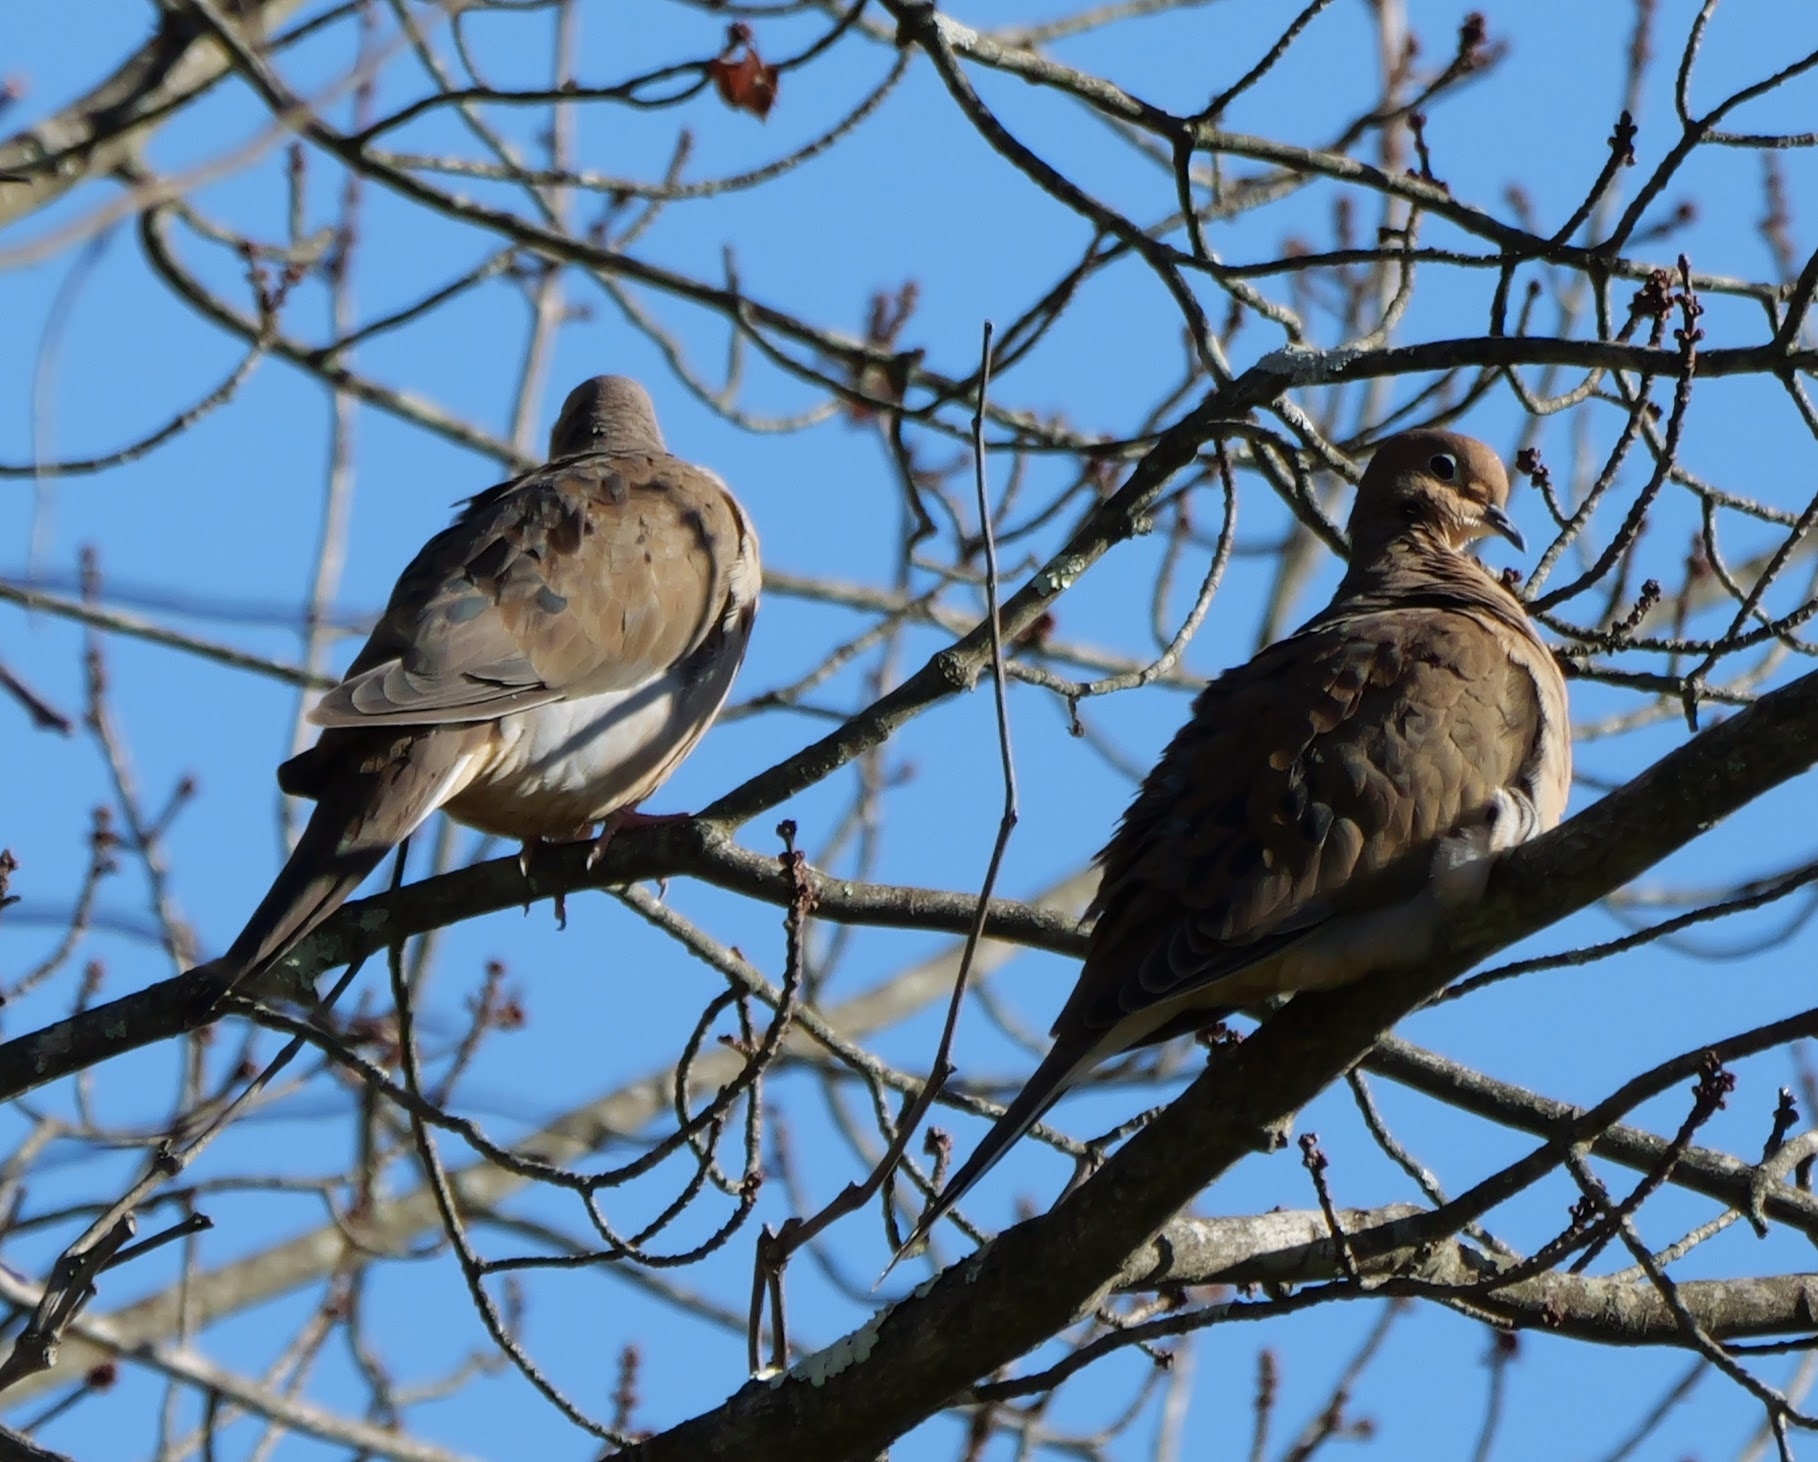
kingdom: Animalia
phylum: Chordata
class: Aves
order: Columbiformes
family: Columbidae
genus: Zenaida
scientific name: Zenaida macroura
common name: Mourning dove
